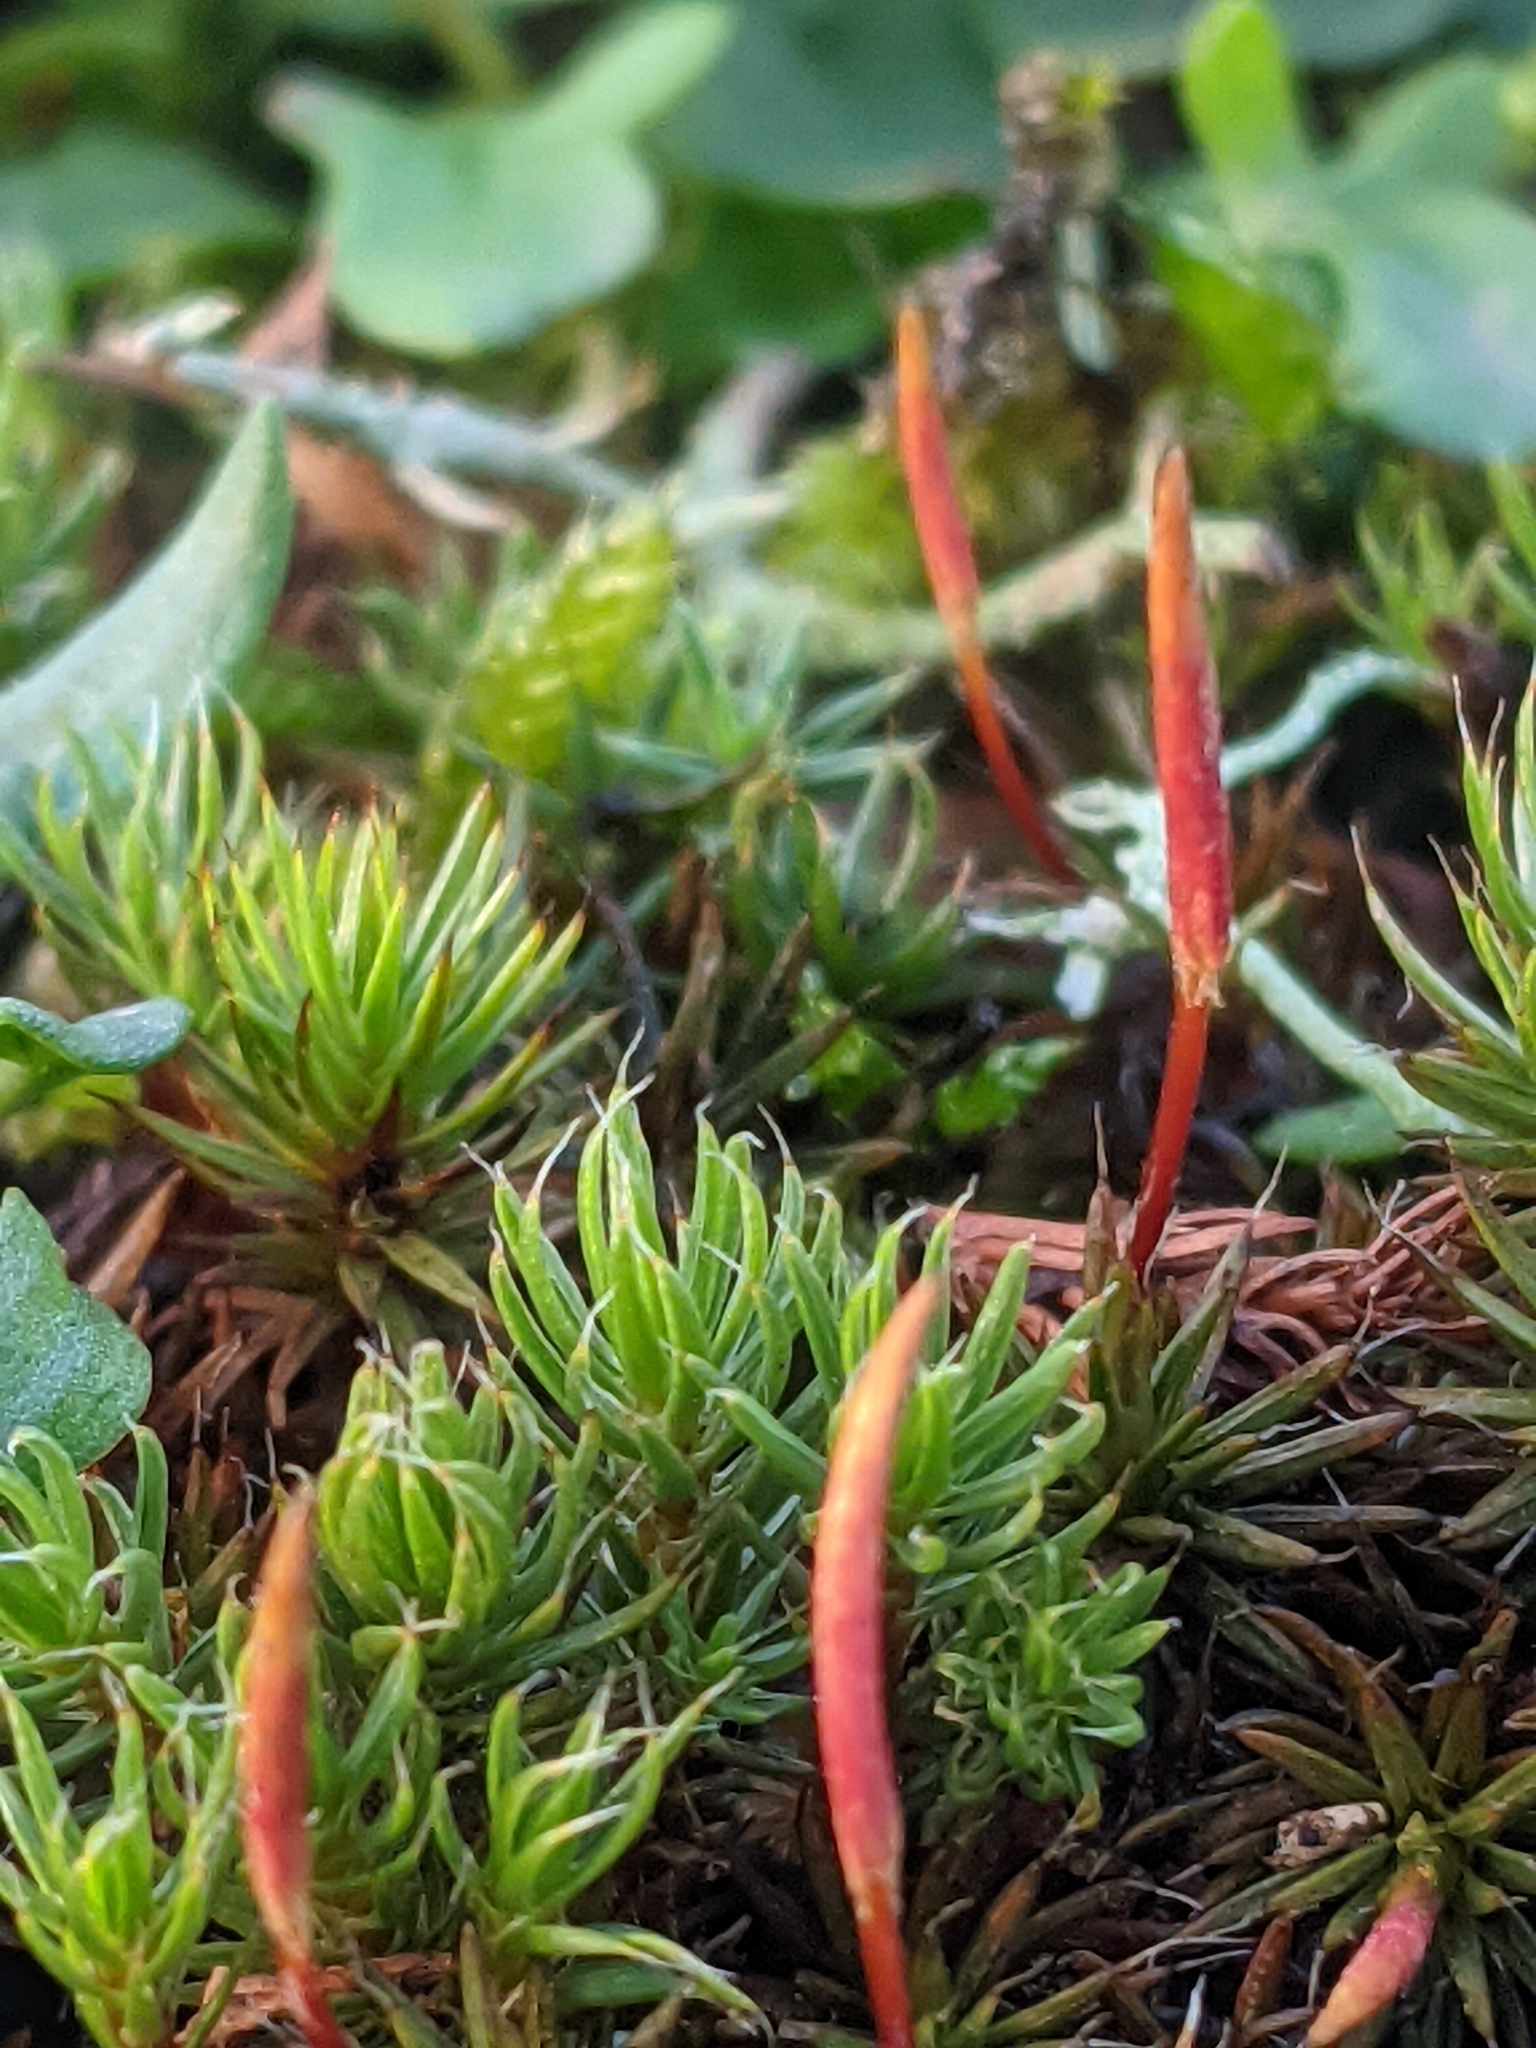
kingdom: Plantae
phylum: Bryophyta
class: Polytrichopsida
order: Polytrichales
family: Polytrichaceae
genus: Polytrichum
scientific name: Polytrichum piliferum
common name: Bristly haircap
